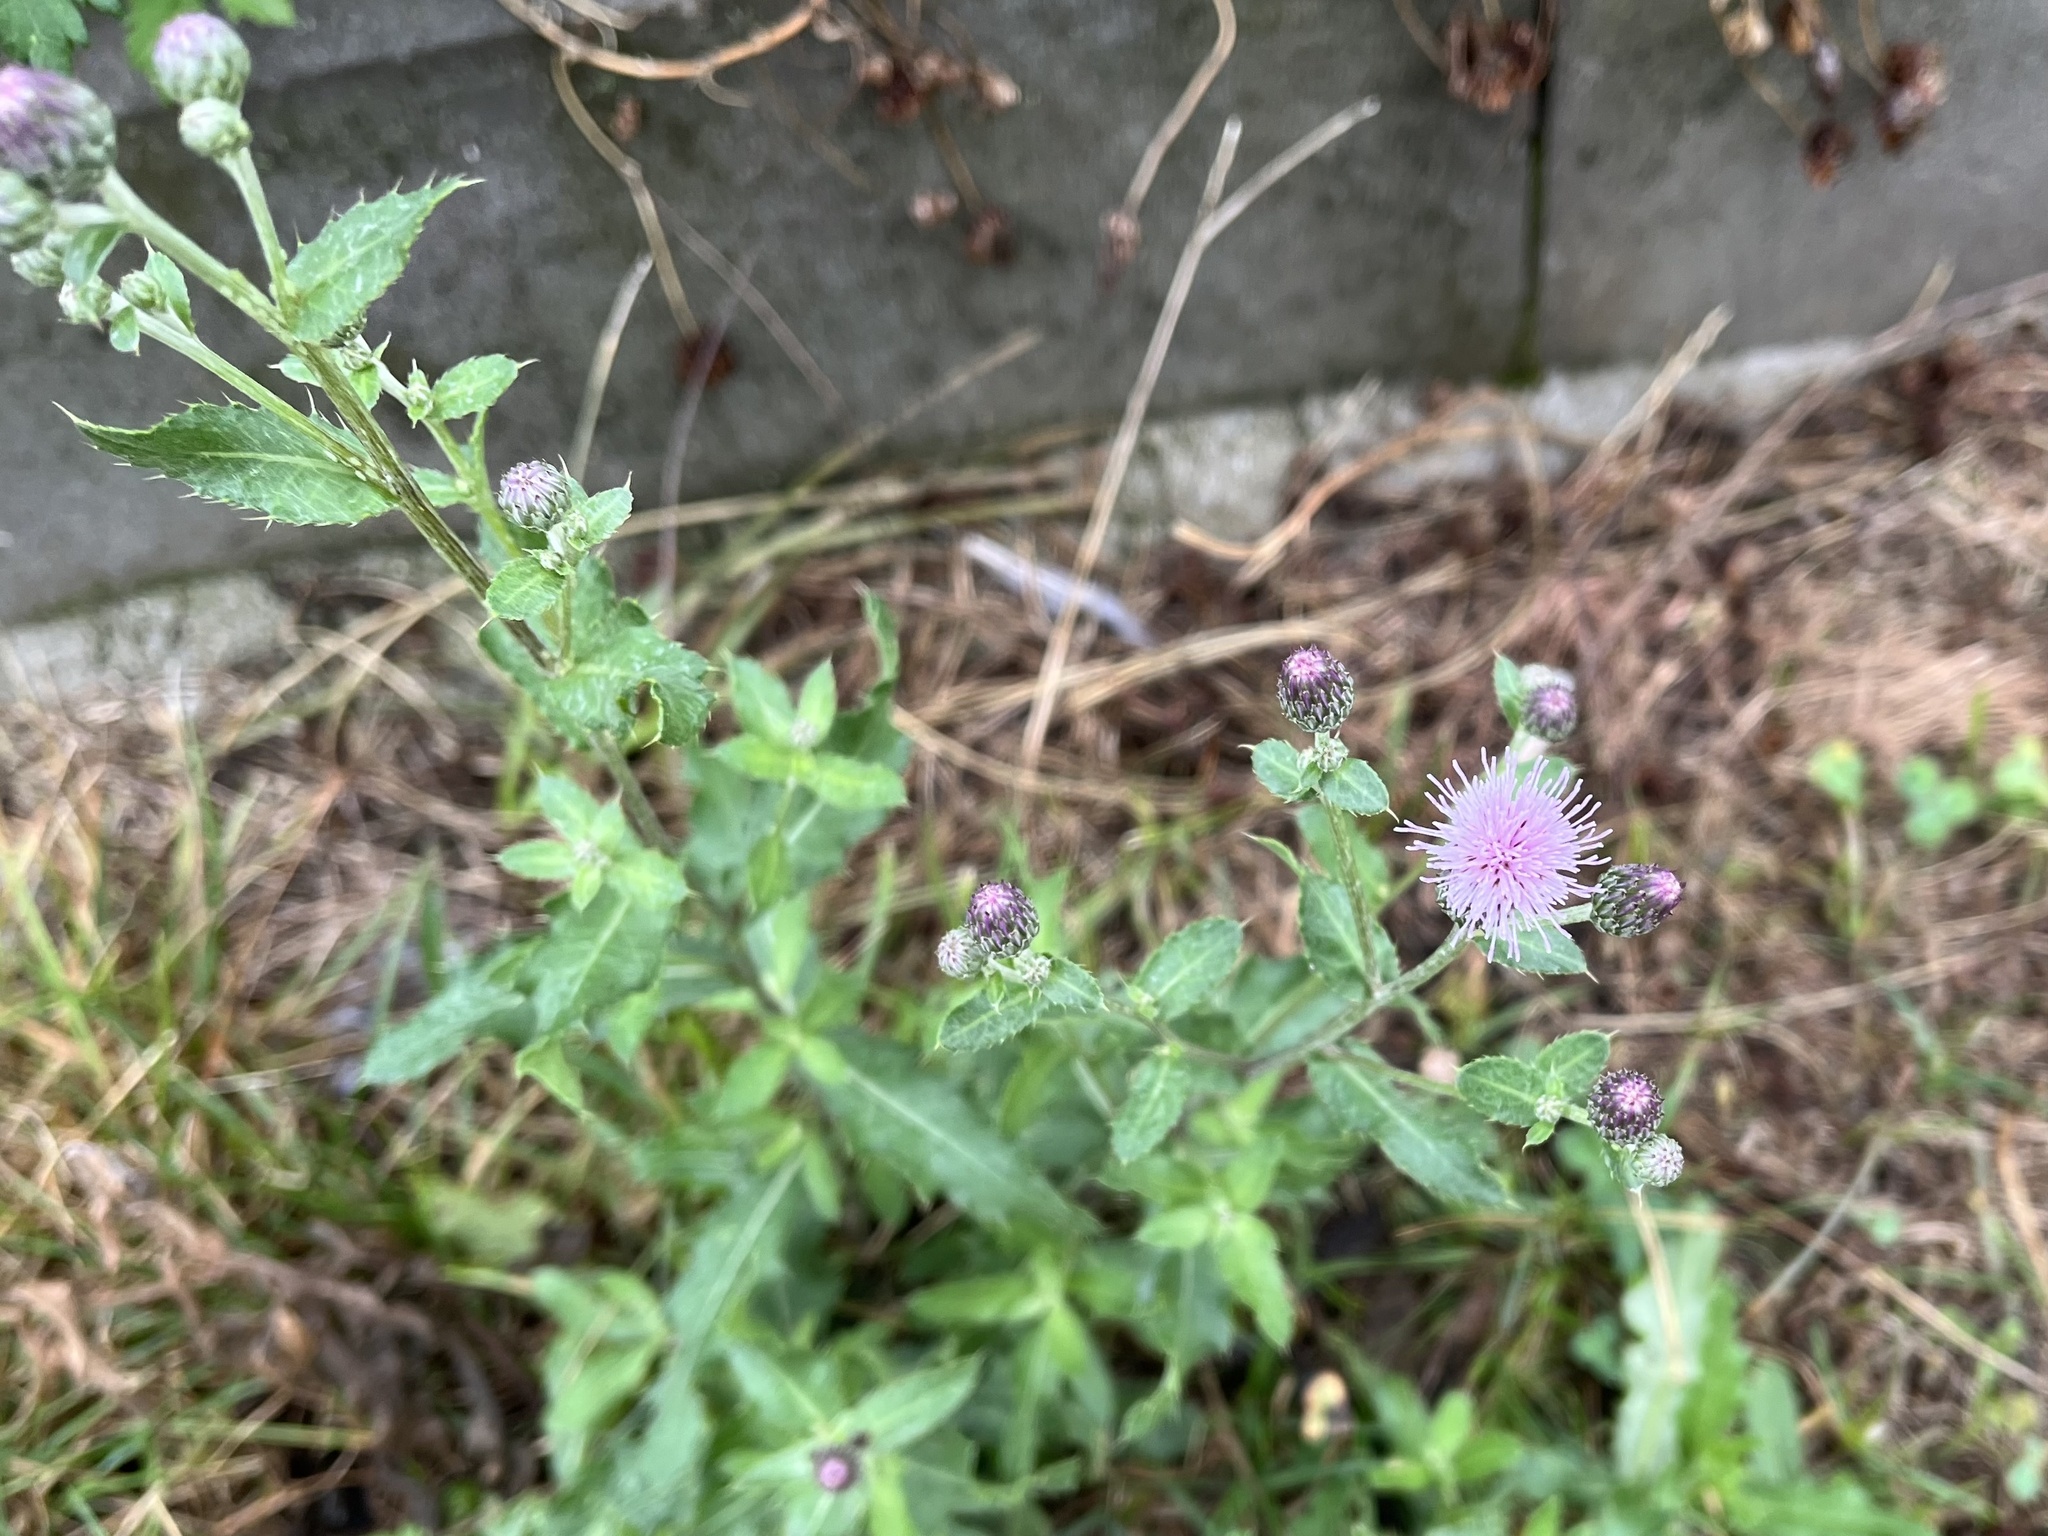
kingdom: Plantae
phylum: Tracheophyta
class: Magnoliopsida
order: Asterales
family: Asteraceae
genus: Cirsium
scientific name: Cirsium arvense
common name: Creeping thistle
